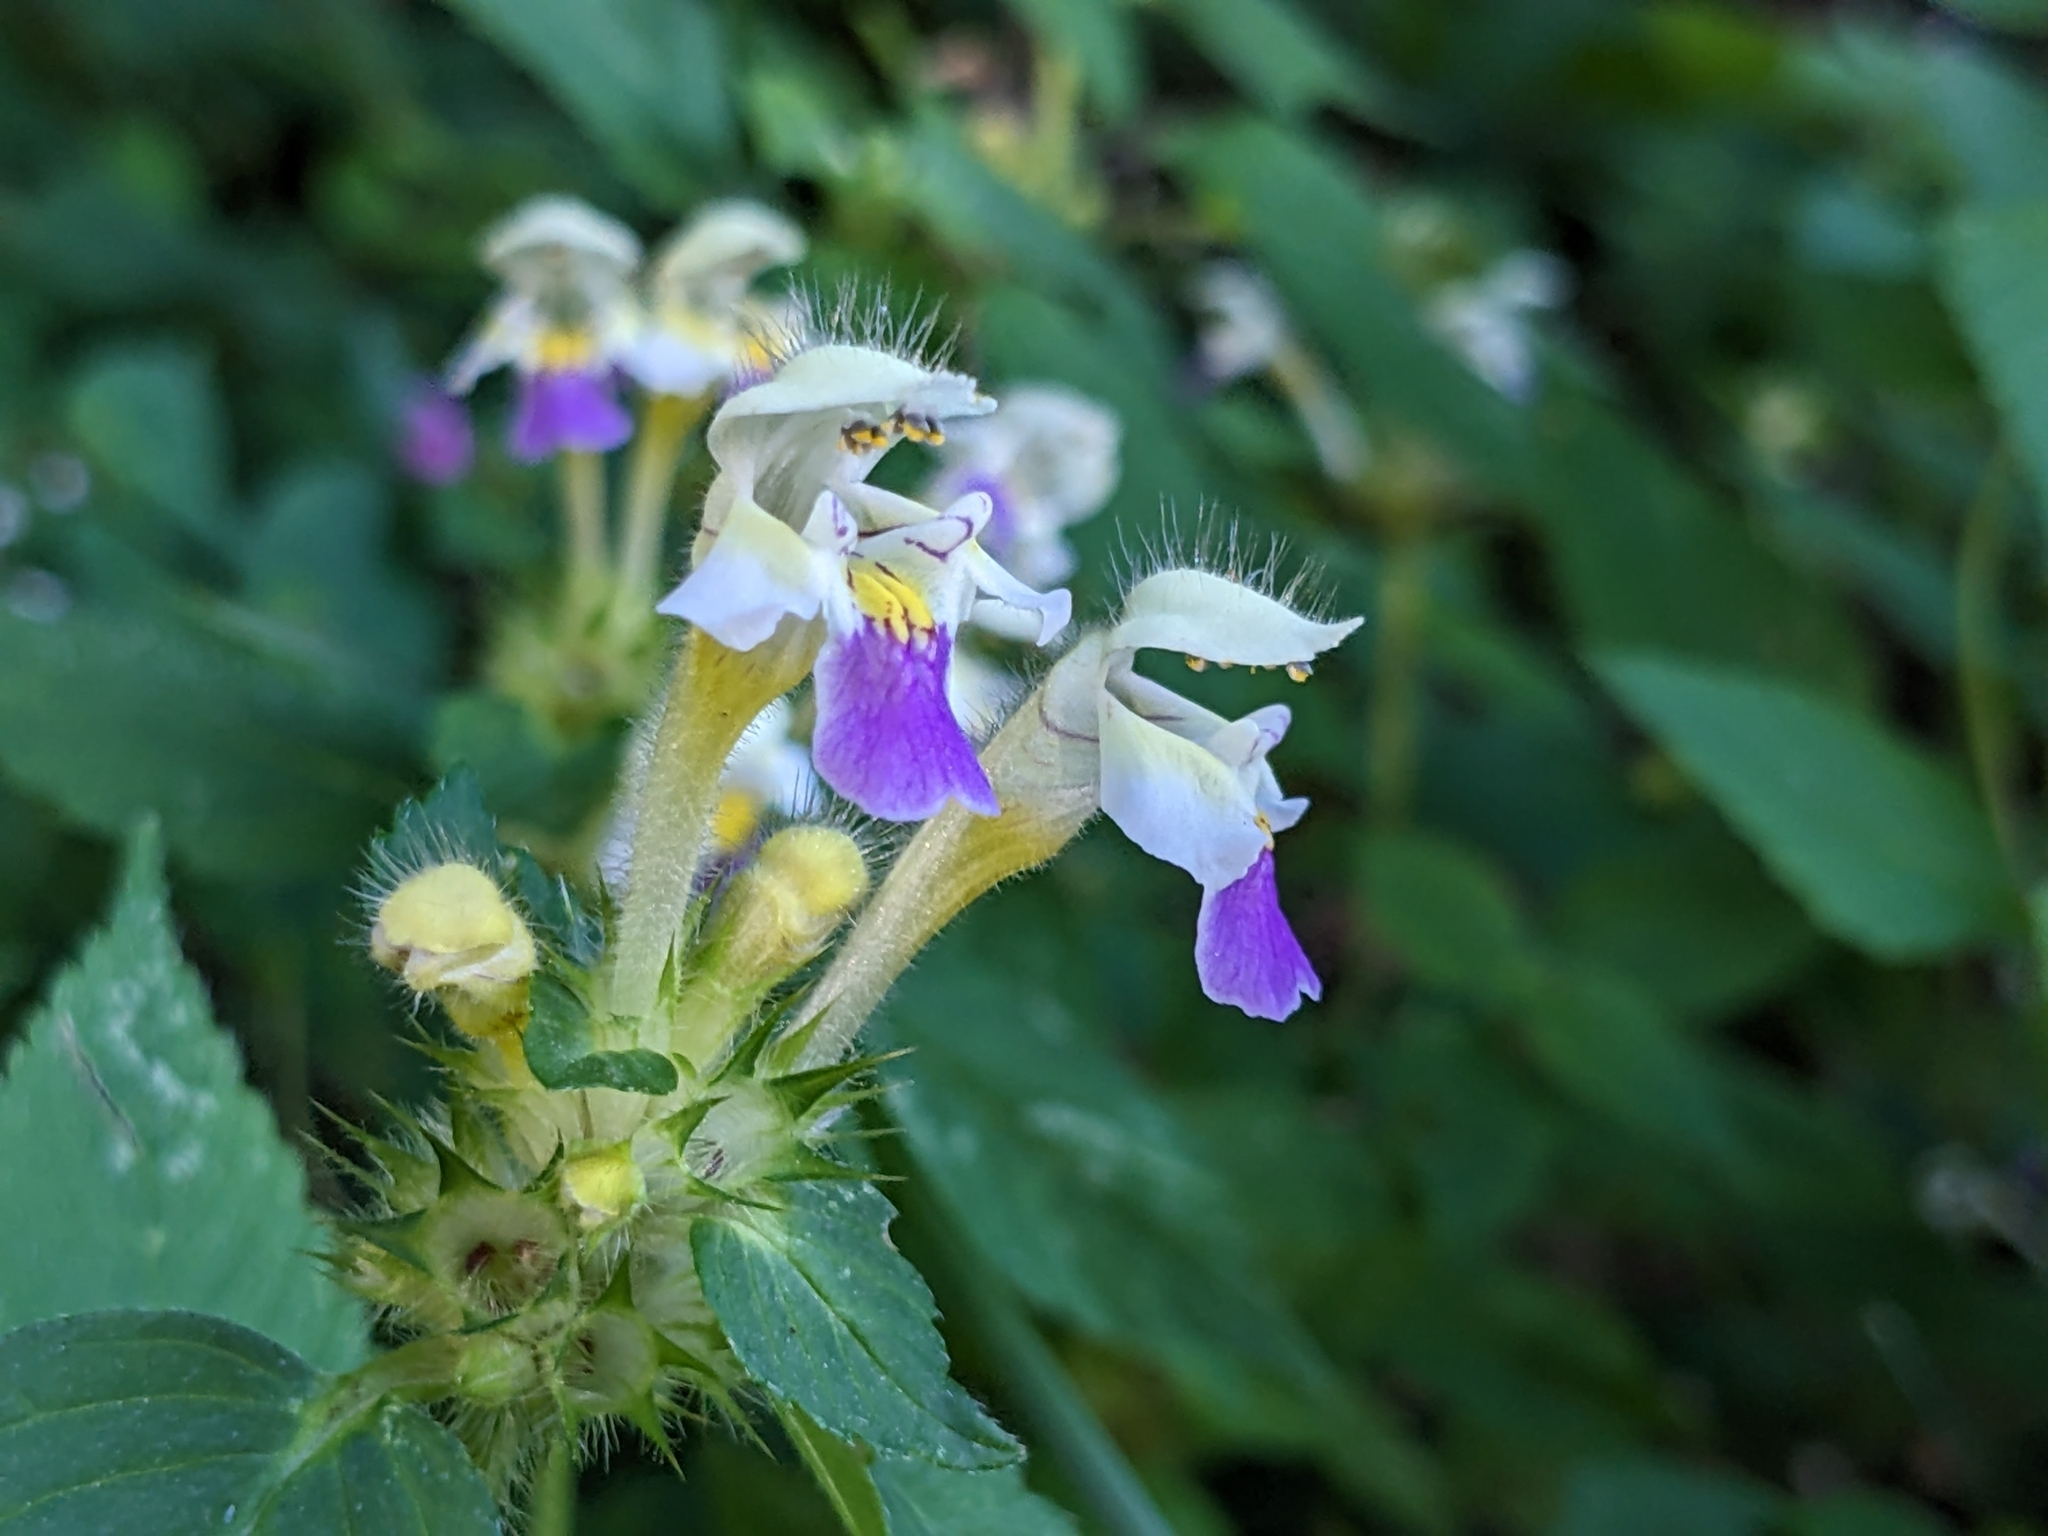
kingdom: Plantae
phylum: Tracheophyta
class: Magnoliopsida
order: Lamiales
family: Lamiaceae
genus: Galeopsis
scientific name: Galeopsis speciosa
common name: Large-flowered hemp-nettle
